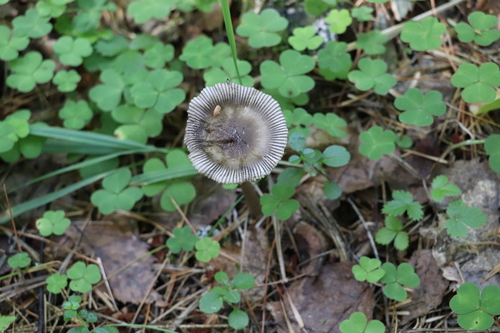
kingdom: Fungi
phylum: Basidiomycota
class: Agaricomycetes
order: Agaricales
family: Amanitaceae
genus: Amanita
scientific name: Amanita battarrae
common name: Banded amanita
